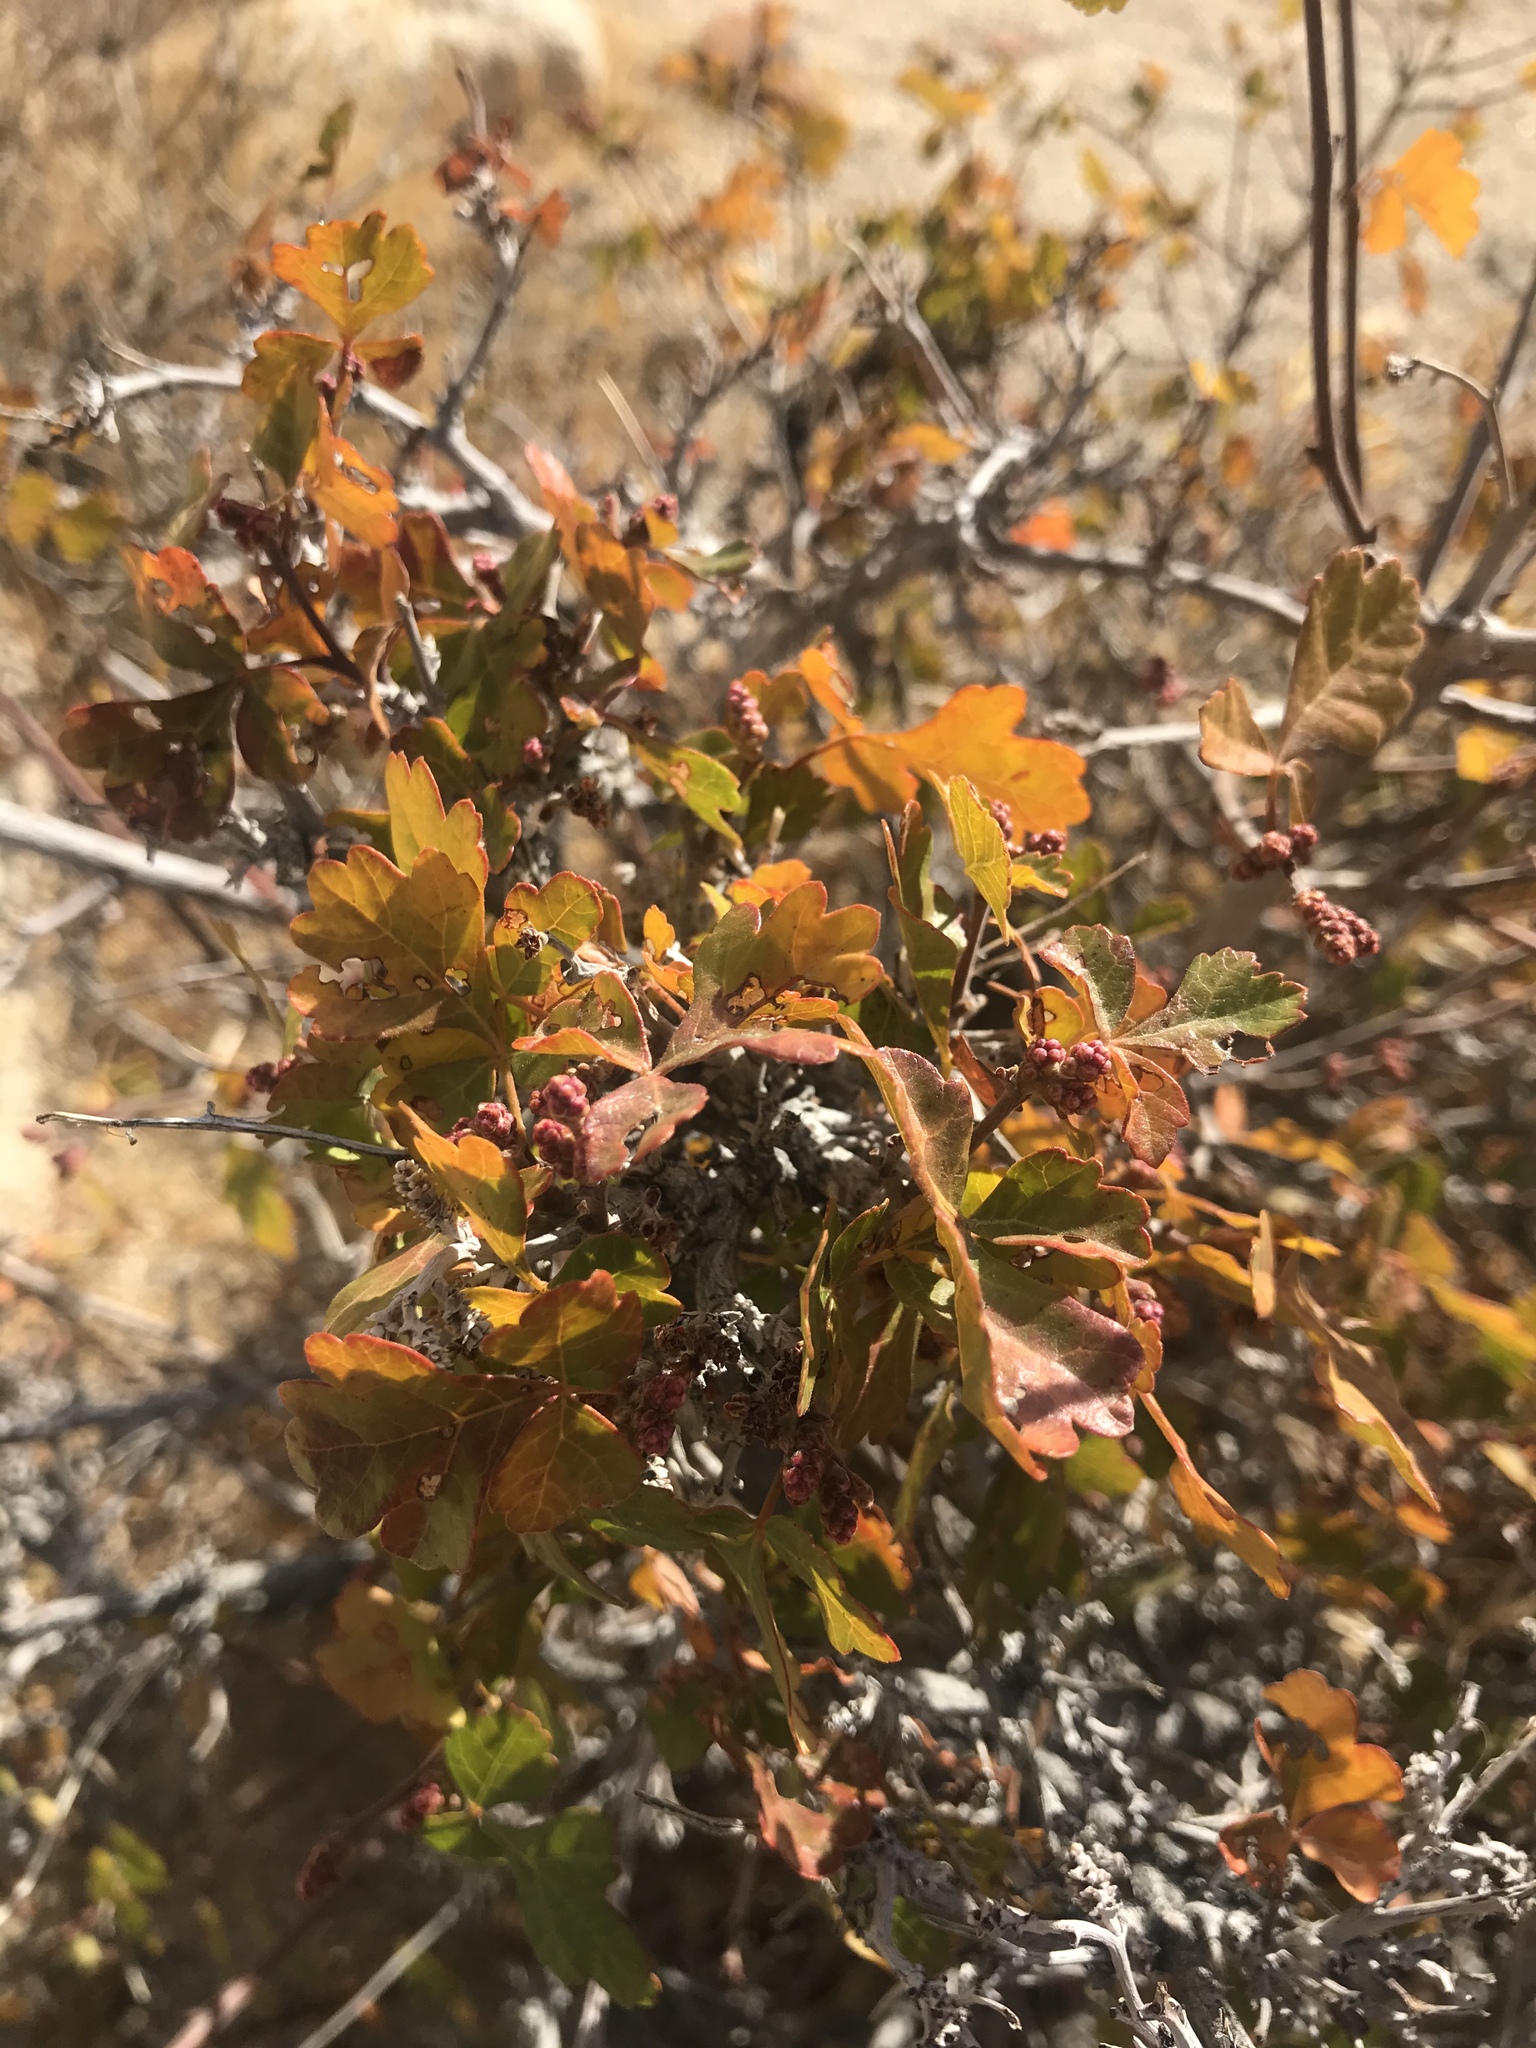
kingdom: Plantae
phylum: Tracheophyta
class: Magnoliopsida
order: Sapindales
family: Anacardiaceae
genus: Rhus
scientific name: Rhus aromatica
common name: Aromatic sumac
